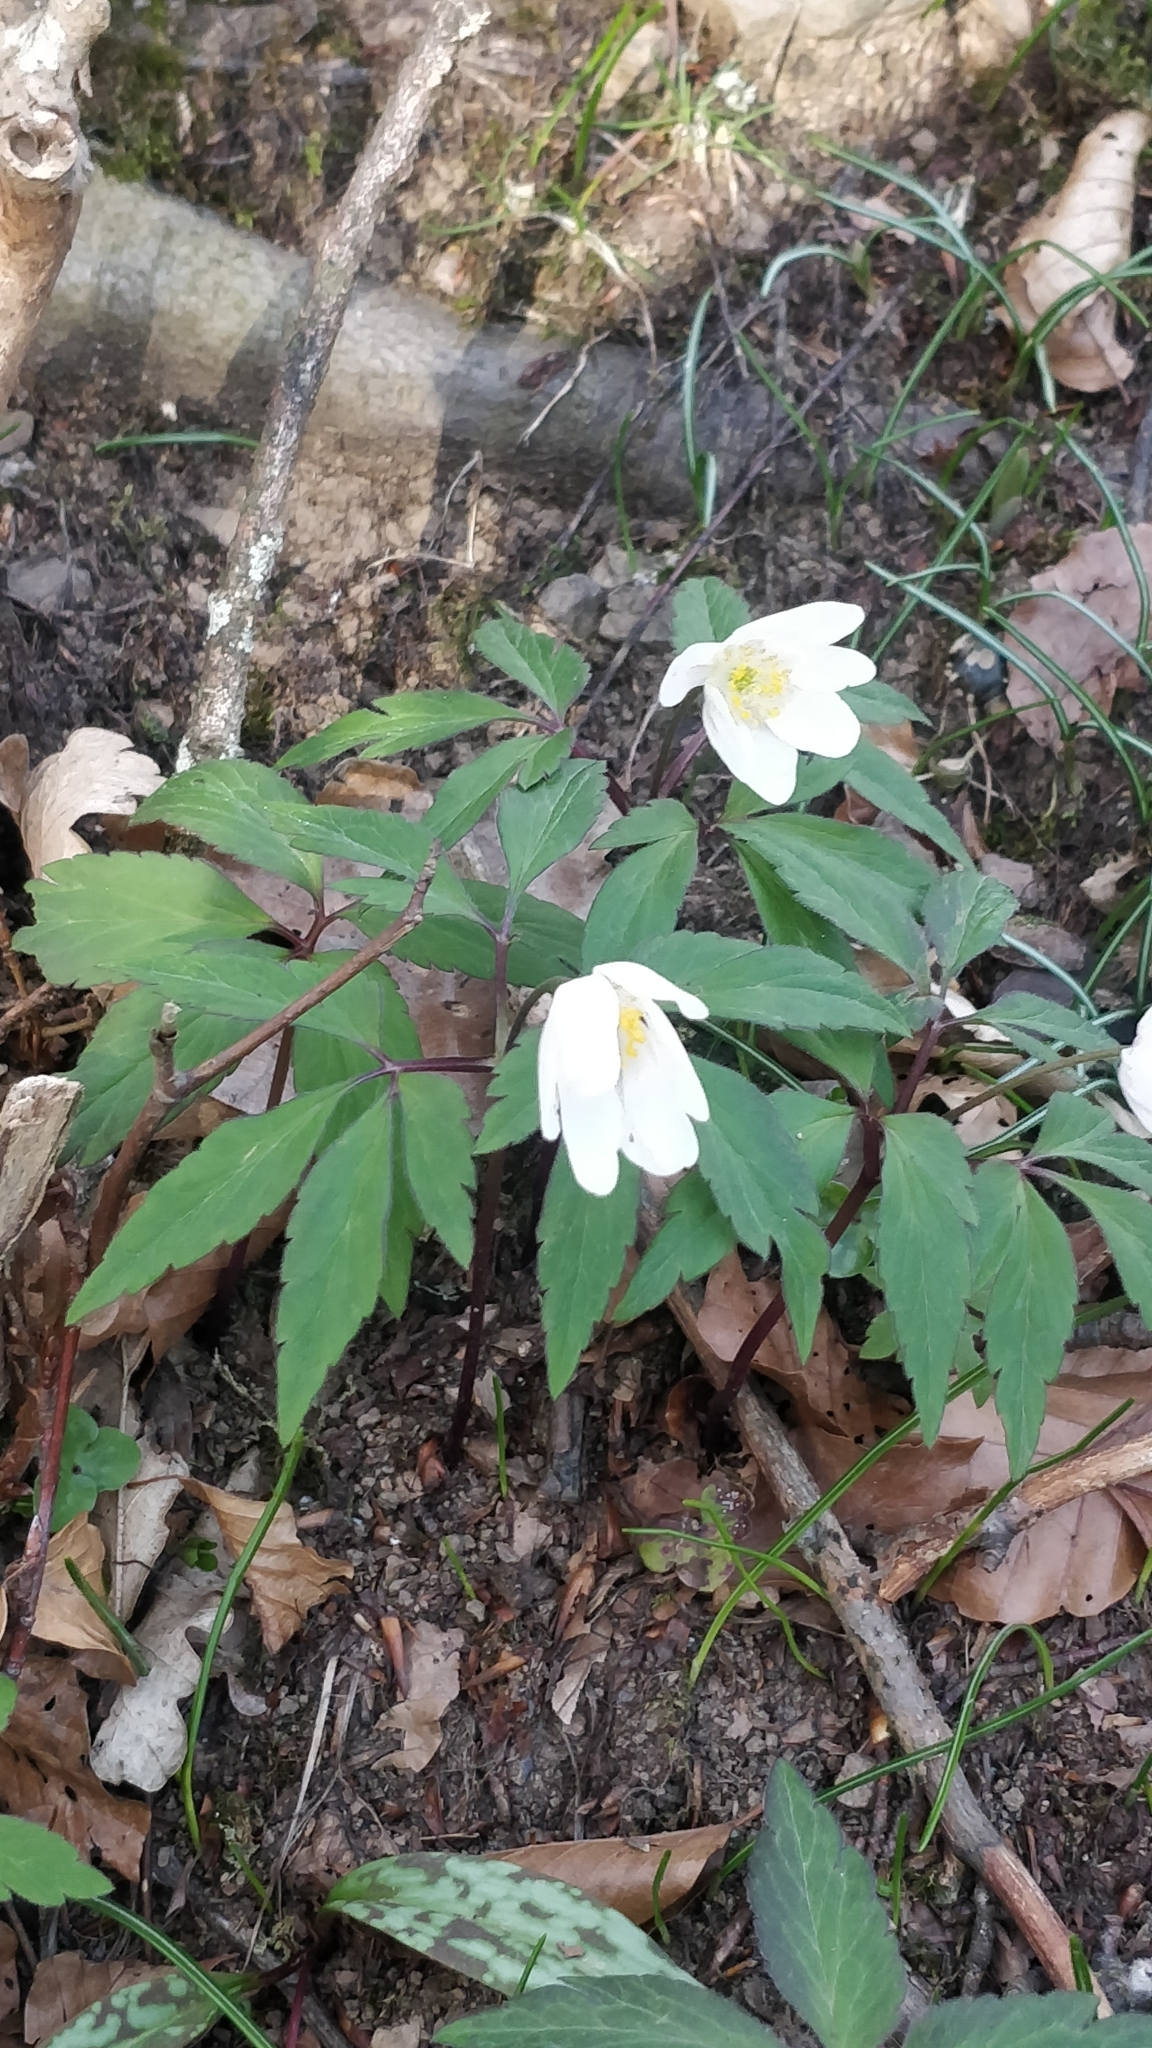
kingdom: Plantae
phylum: Tracheophyta
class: Magnoliopsida
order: Ranunculales
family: Ranunculaceae
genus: Anemone
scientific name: Anemone nemorosa
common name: Wood anemone
